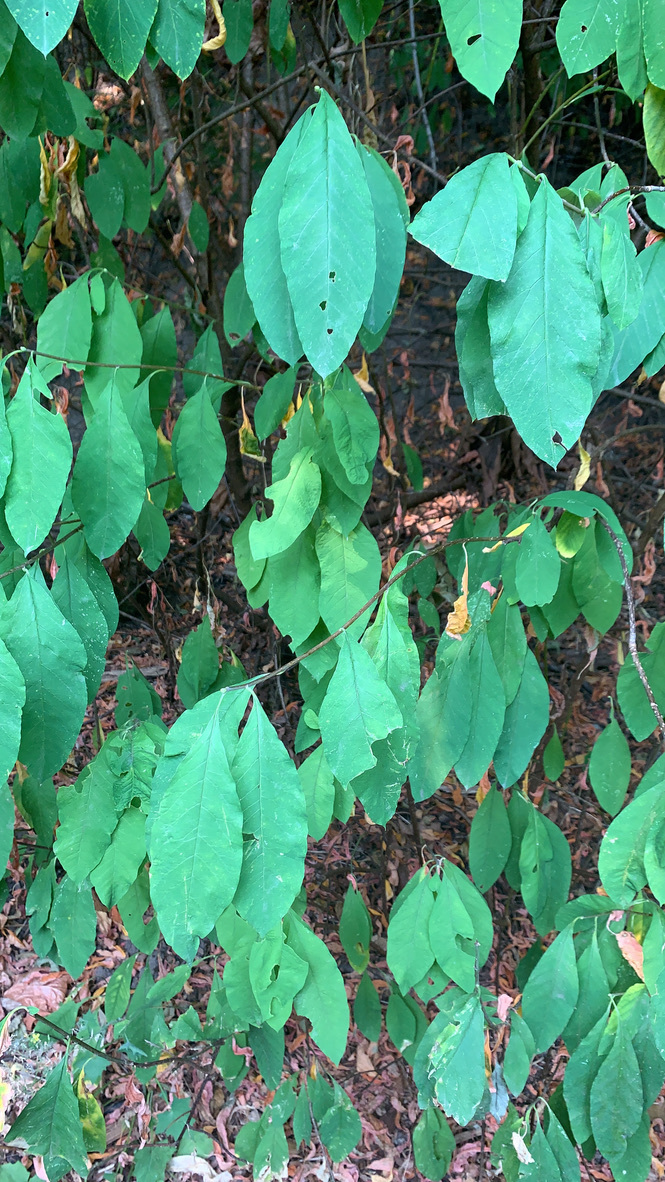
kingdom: Plantae
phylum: Tracheophyta
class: Magnoliopsida
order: Rosales
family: Rosaceae
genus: Oemleria
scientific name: Oemleria cerasiformis
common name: Osoberry
